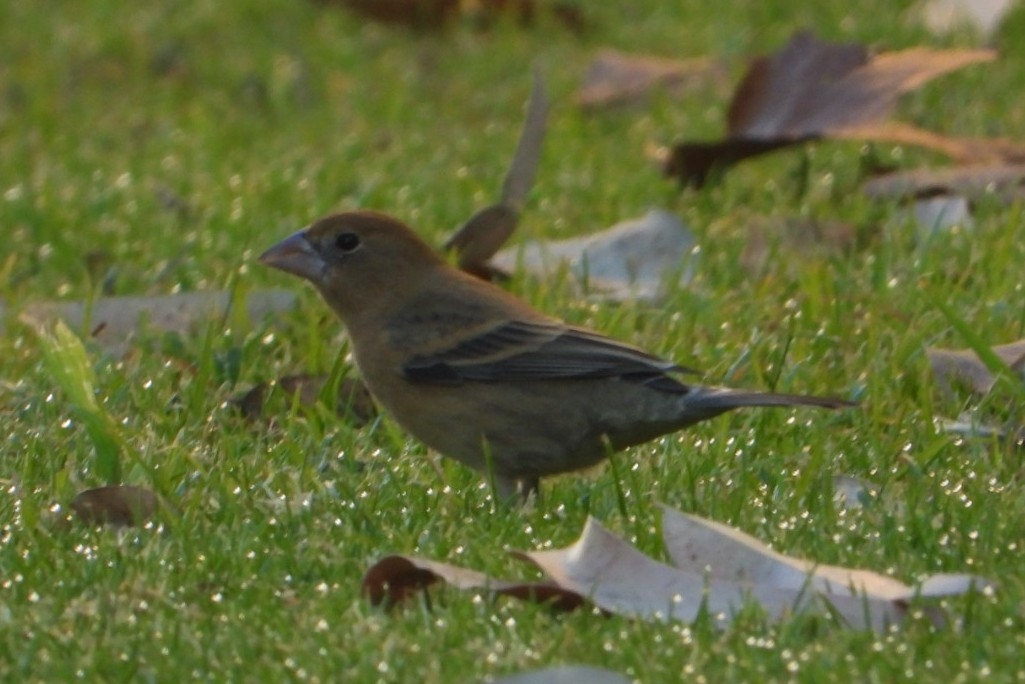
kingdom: Animalia
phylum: Chordata
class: Aves
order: Passeriformes
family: Cardinalidae
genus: Passerina
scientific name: Passerina caerulea
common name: Blue grosbeak
